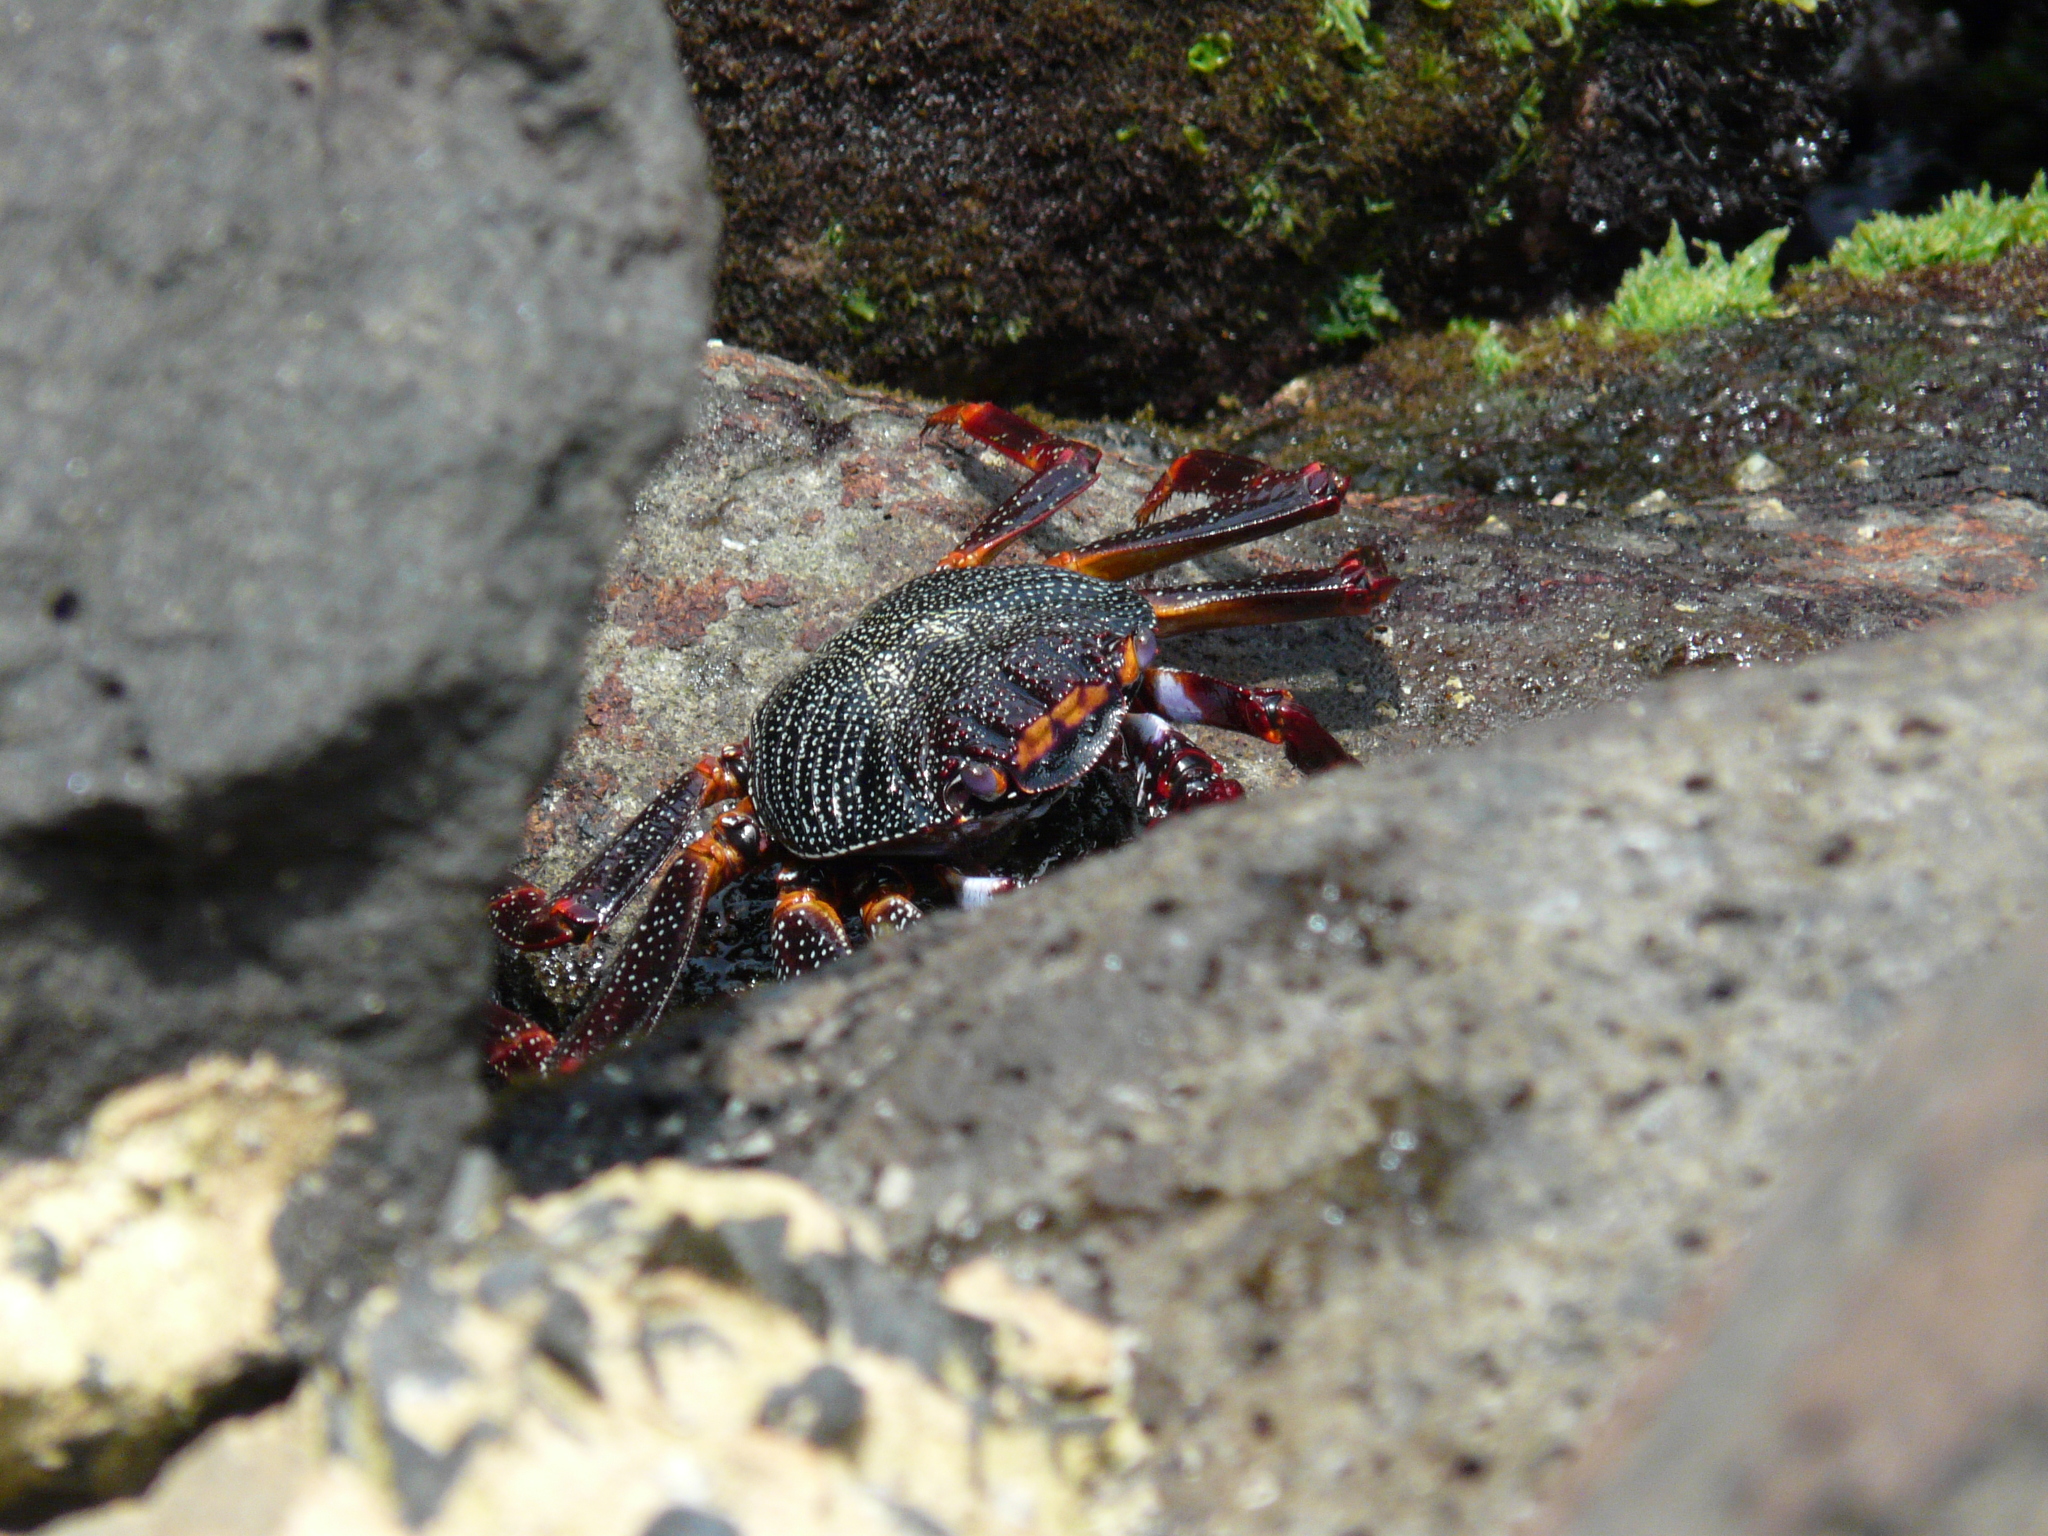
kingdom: Animalia
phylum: Arthropoda
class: Malacostraca
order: Decapoda
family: Grapsidae
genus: Grapsus
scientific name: Grapsus adscensionis
